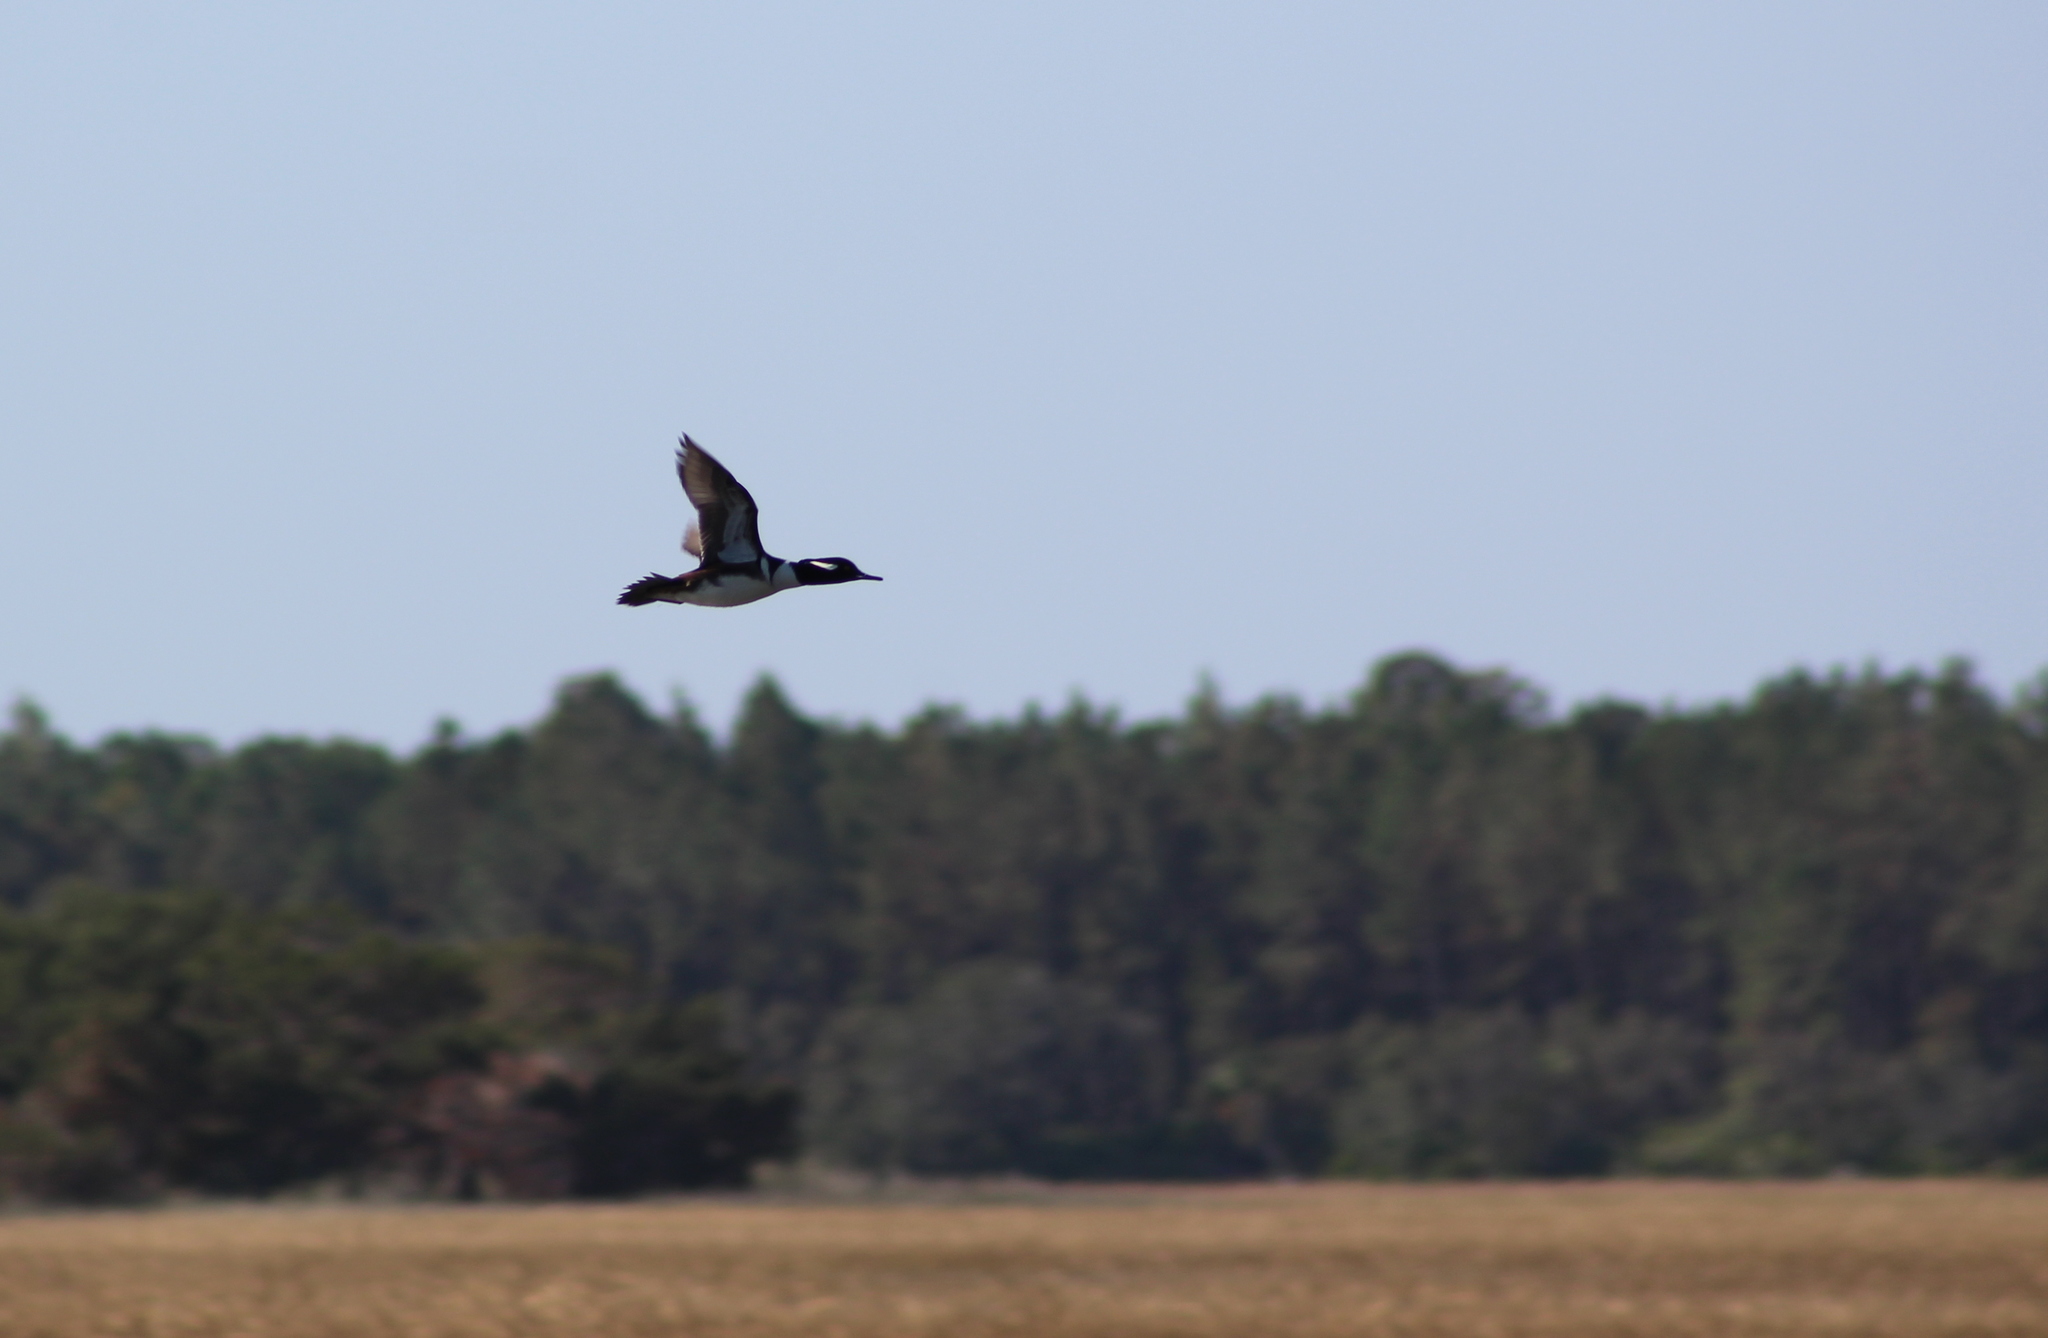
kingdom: Animalia
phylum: Chordata
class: Aves
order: Anseriformes
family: Anatidae
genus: Lophodytes
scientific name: Lophodytes cucullatus
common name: Hooded merganser
